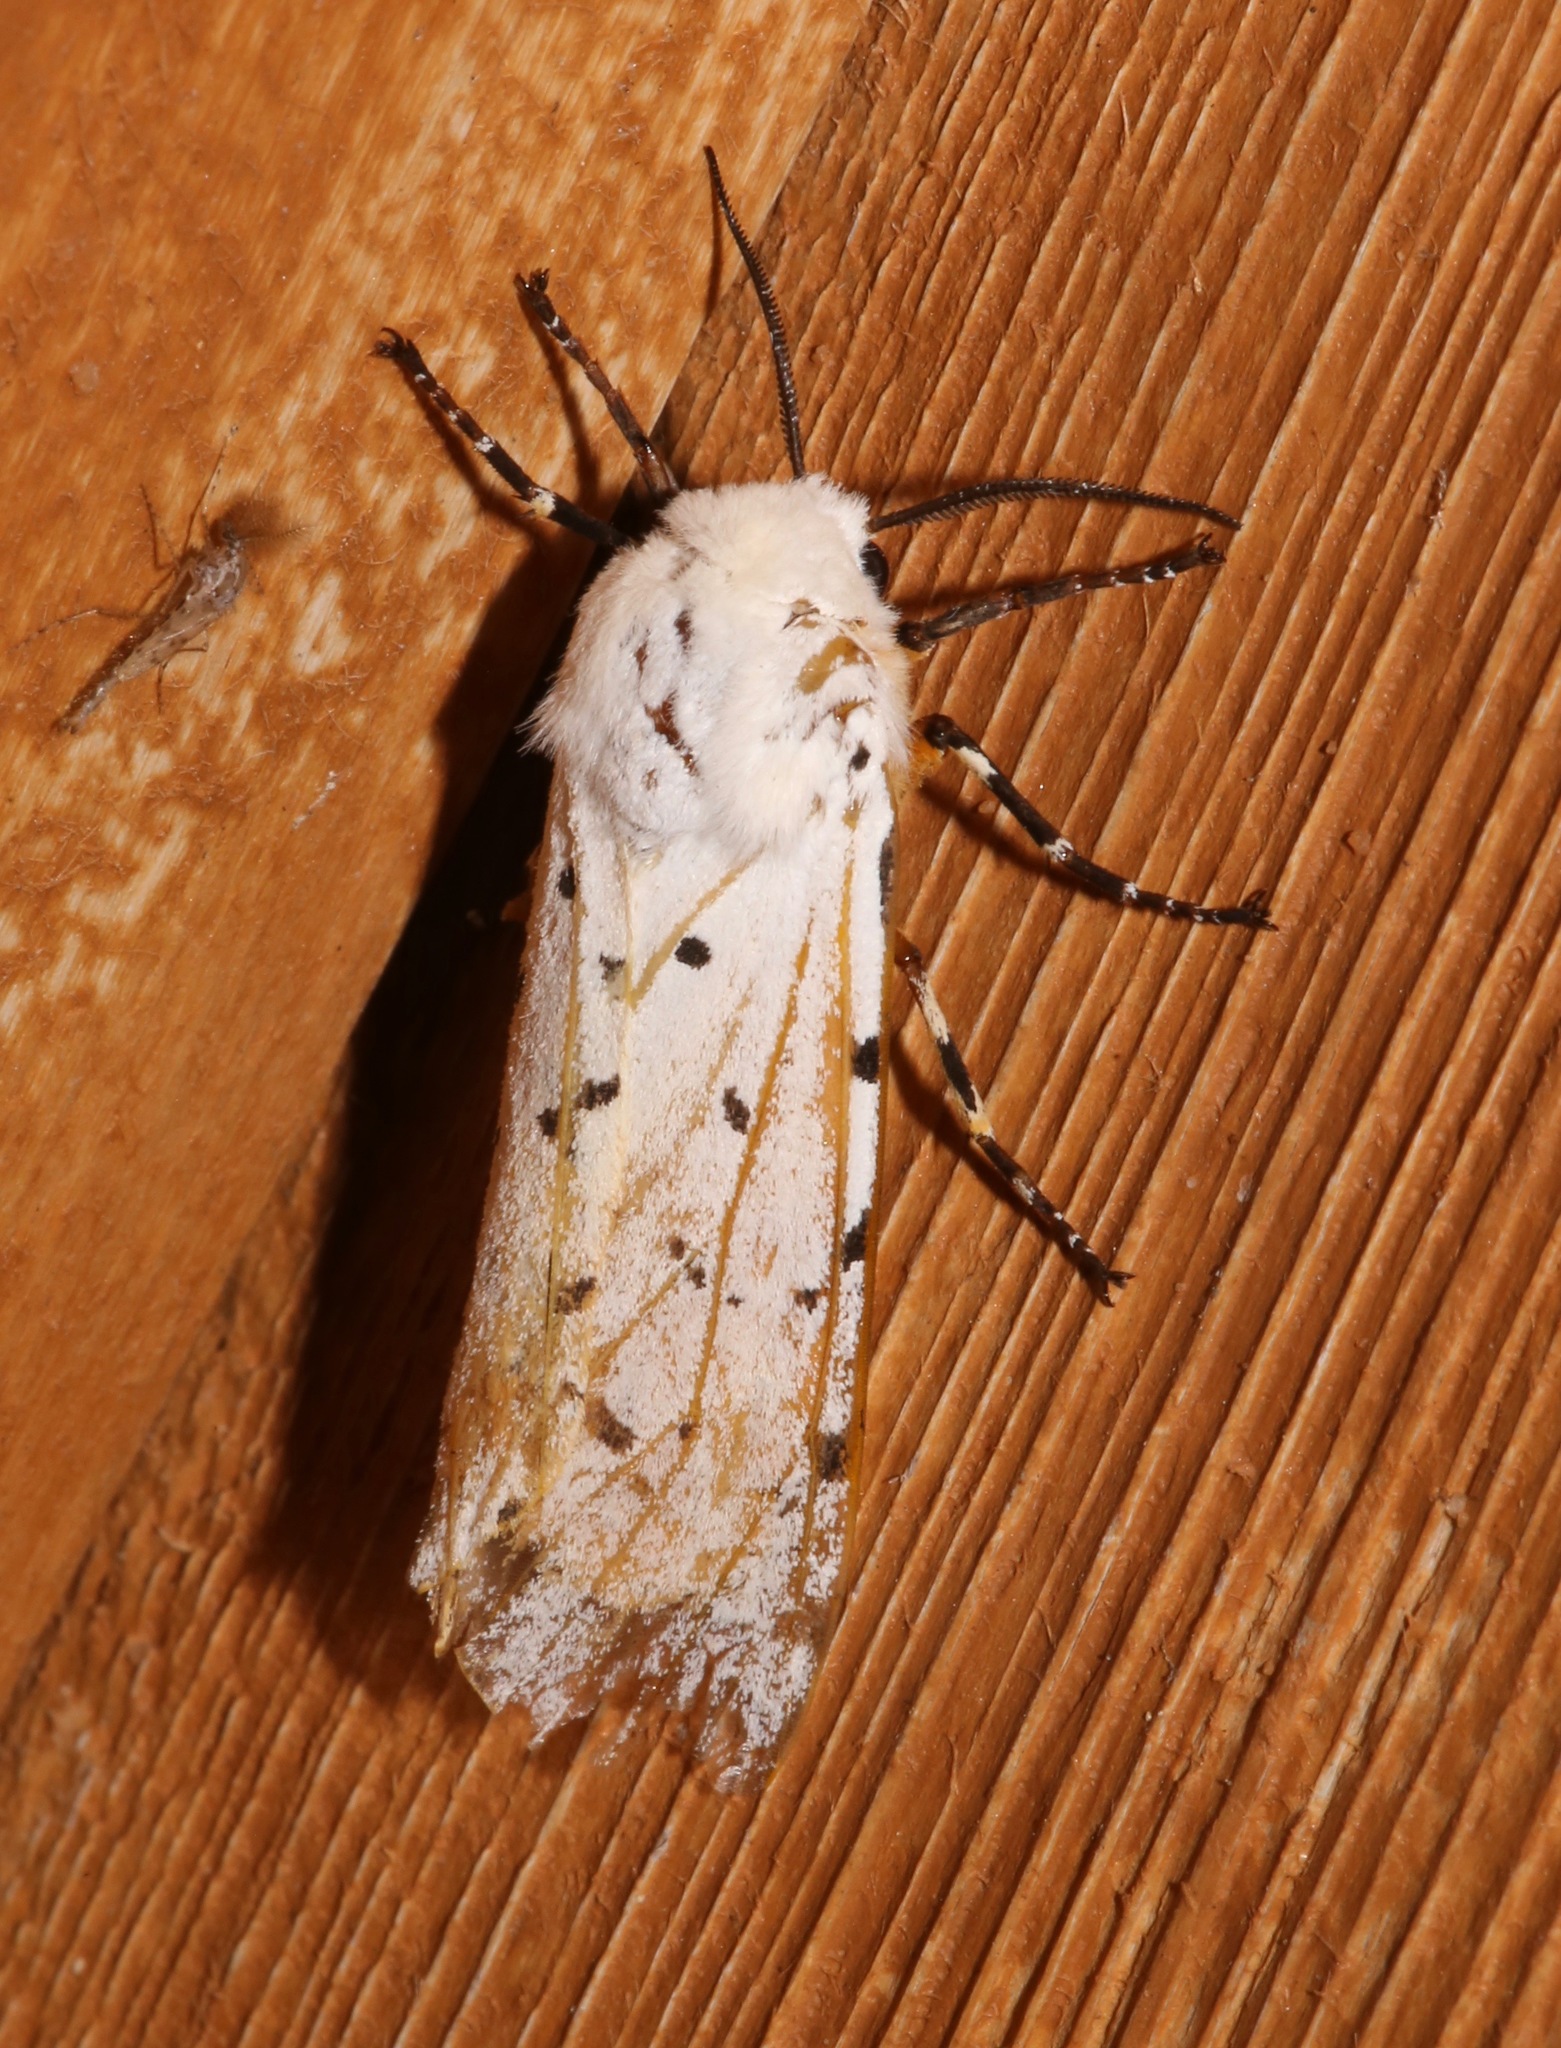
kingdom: Animalia
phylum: Arthropoda
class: Insecta
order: Lepidoptera
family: Erebidae
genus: Estigmene
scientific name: Estigmene acrea
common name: Salt marsh moth
